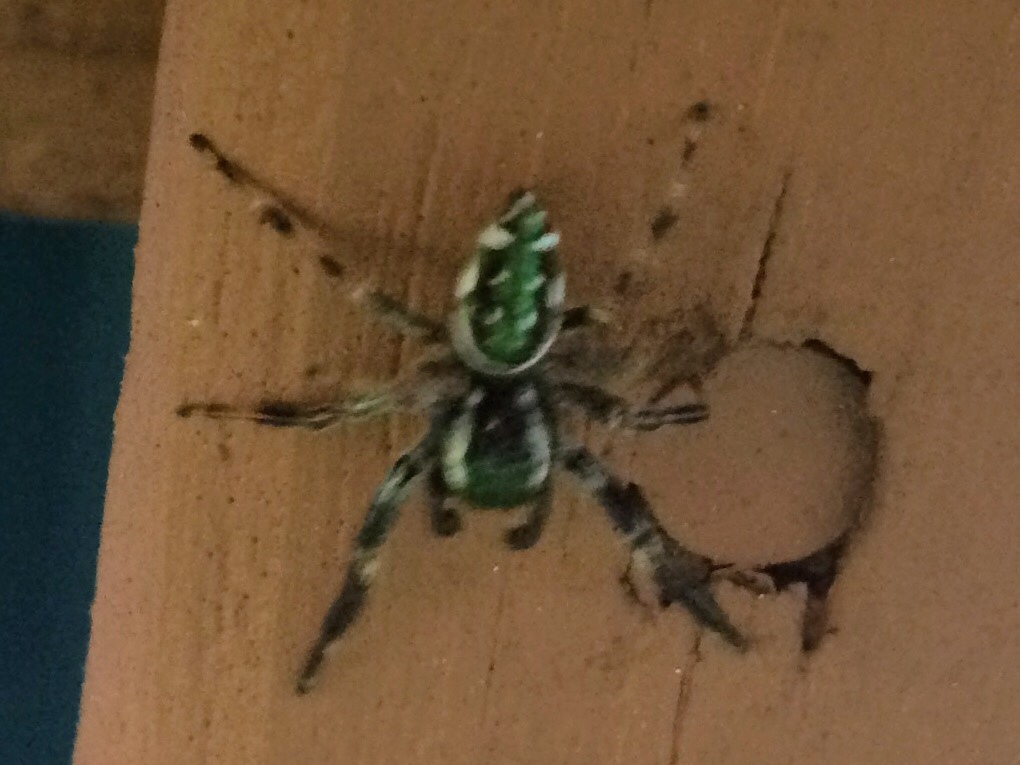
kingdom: Animalia
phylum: Arthropoda
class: Arachnida
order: Araneae
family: Salticidae
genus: Paraphidippus
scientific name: Paraphidippus aurantius
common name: Jumping spiders
